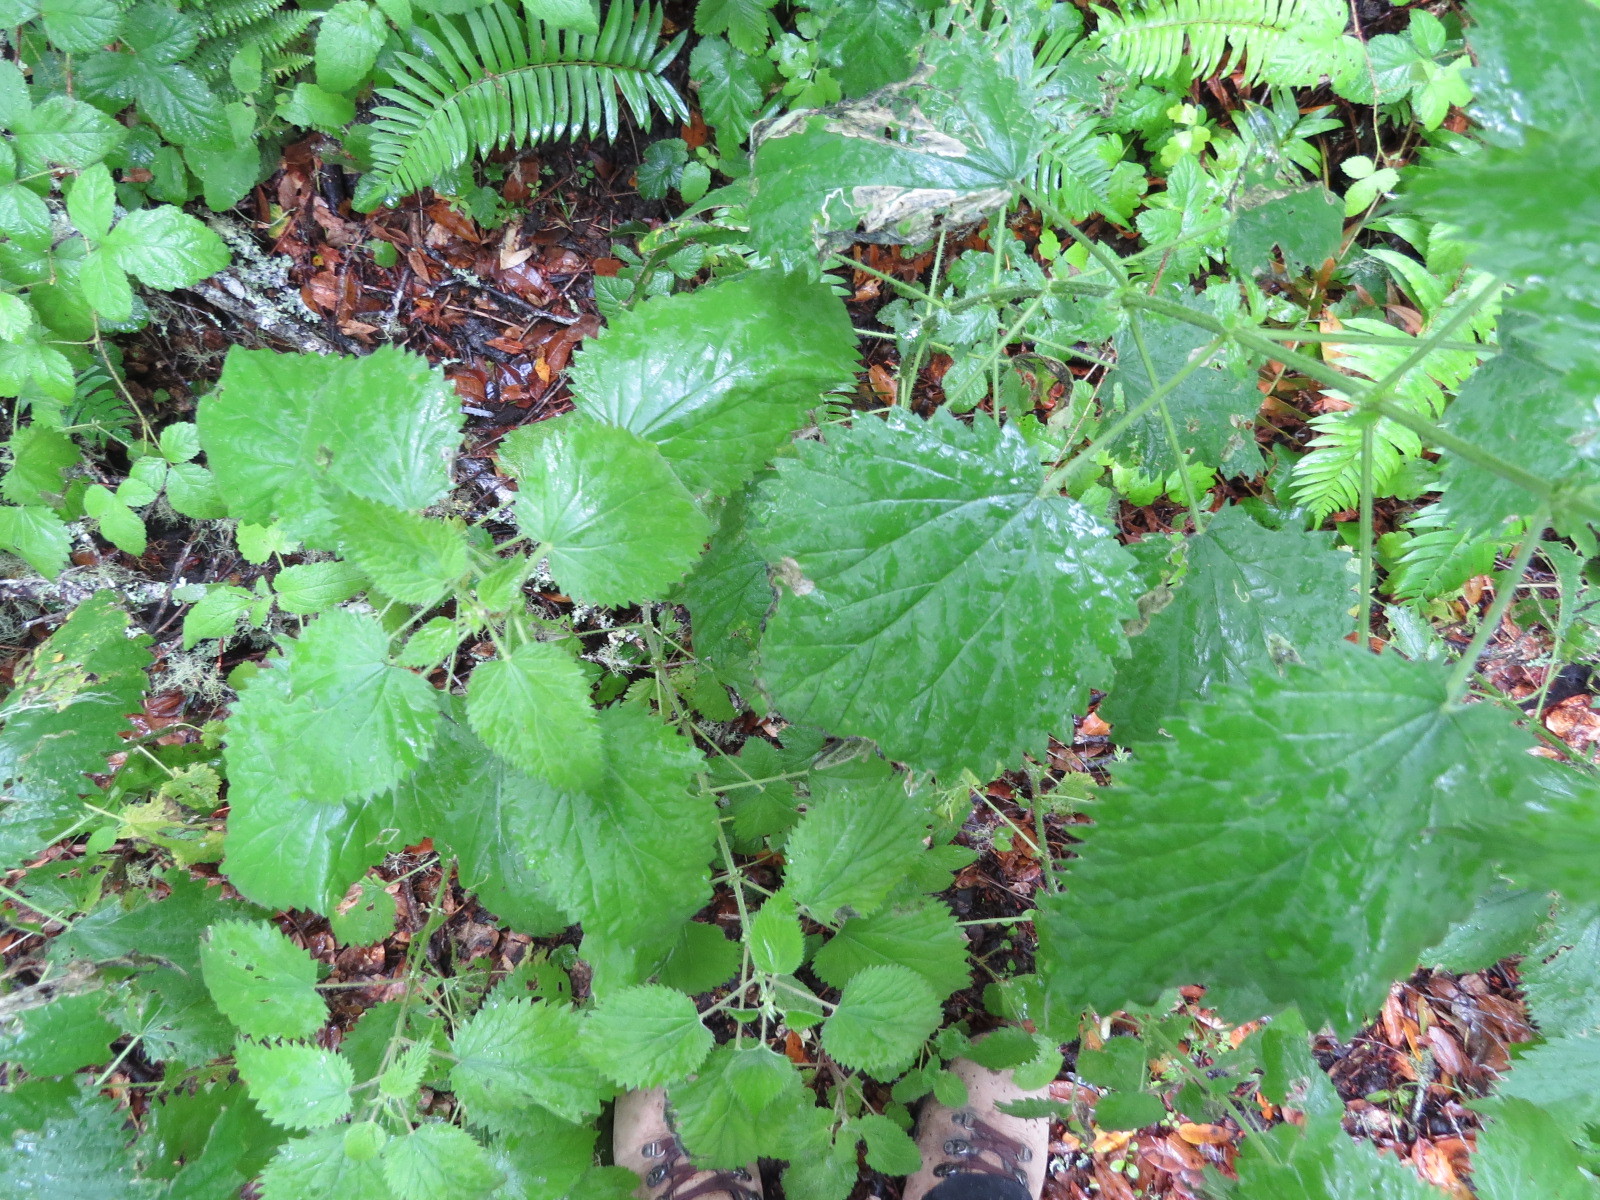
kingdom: Plantae
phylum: Tracheophyta
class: Magnoliopsida
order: Rosales
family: Urticaceae
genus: Urtica
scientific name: Urtica dioica
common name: Common nettle
